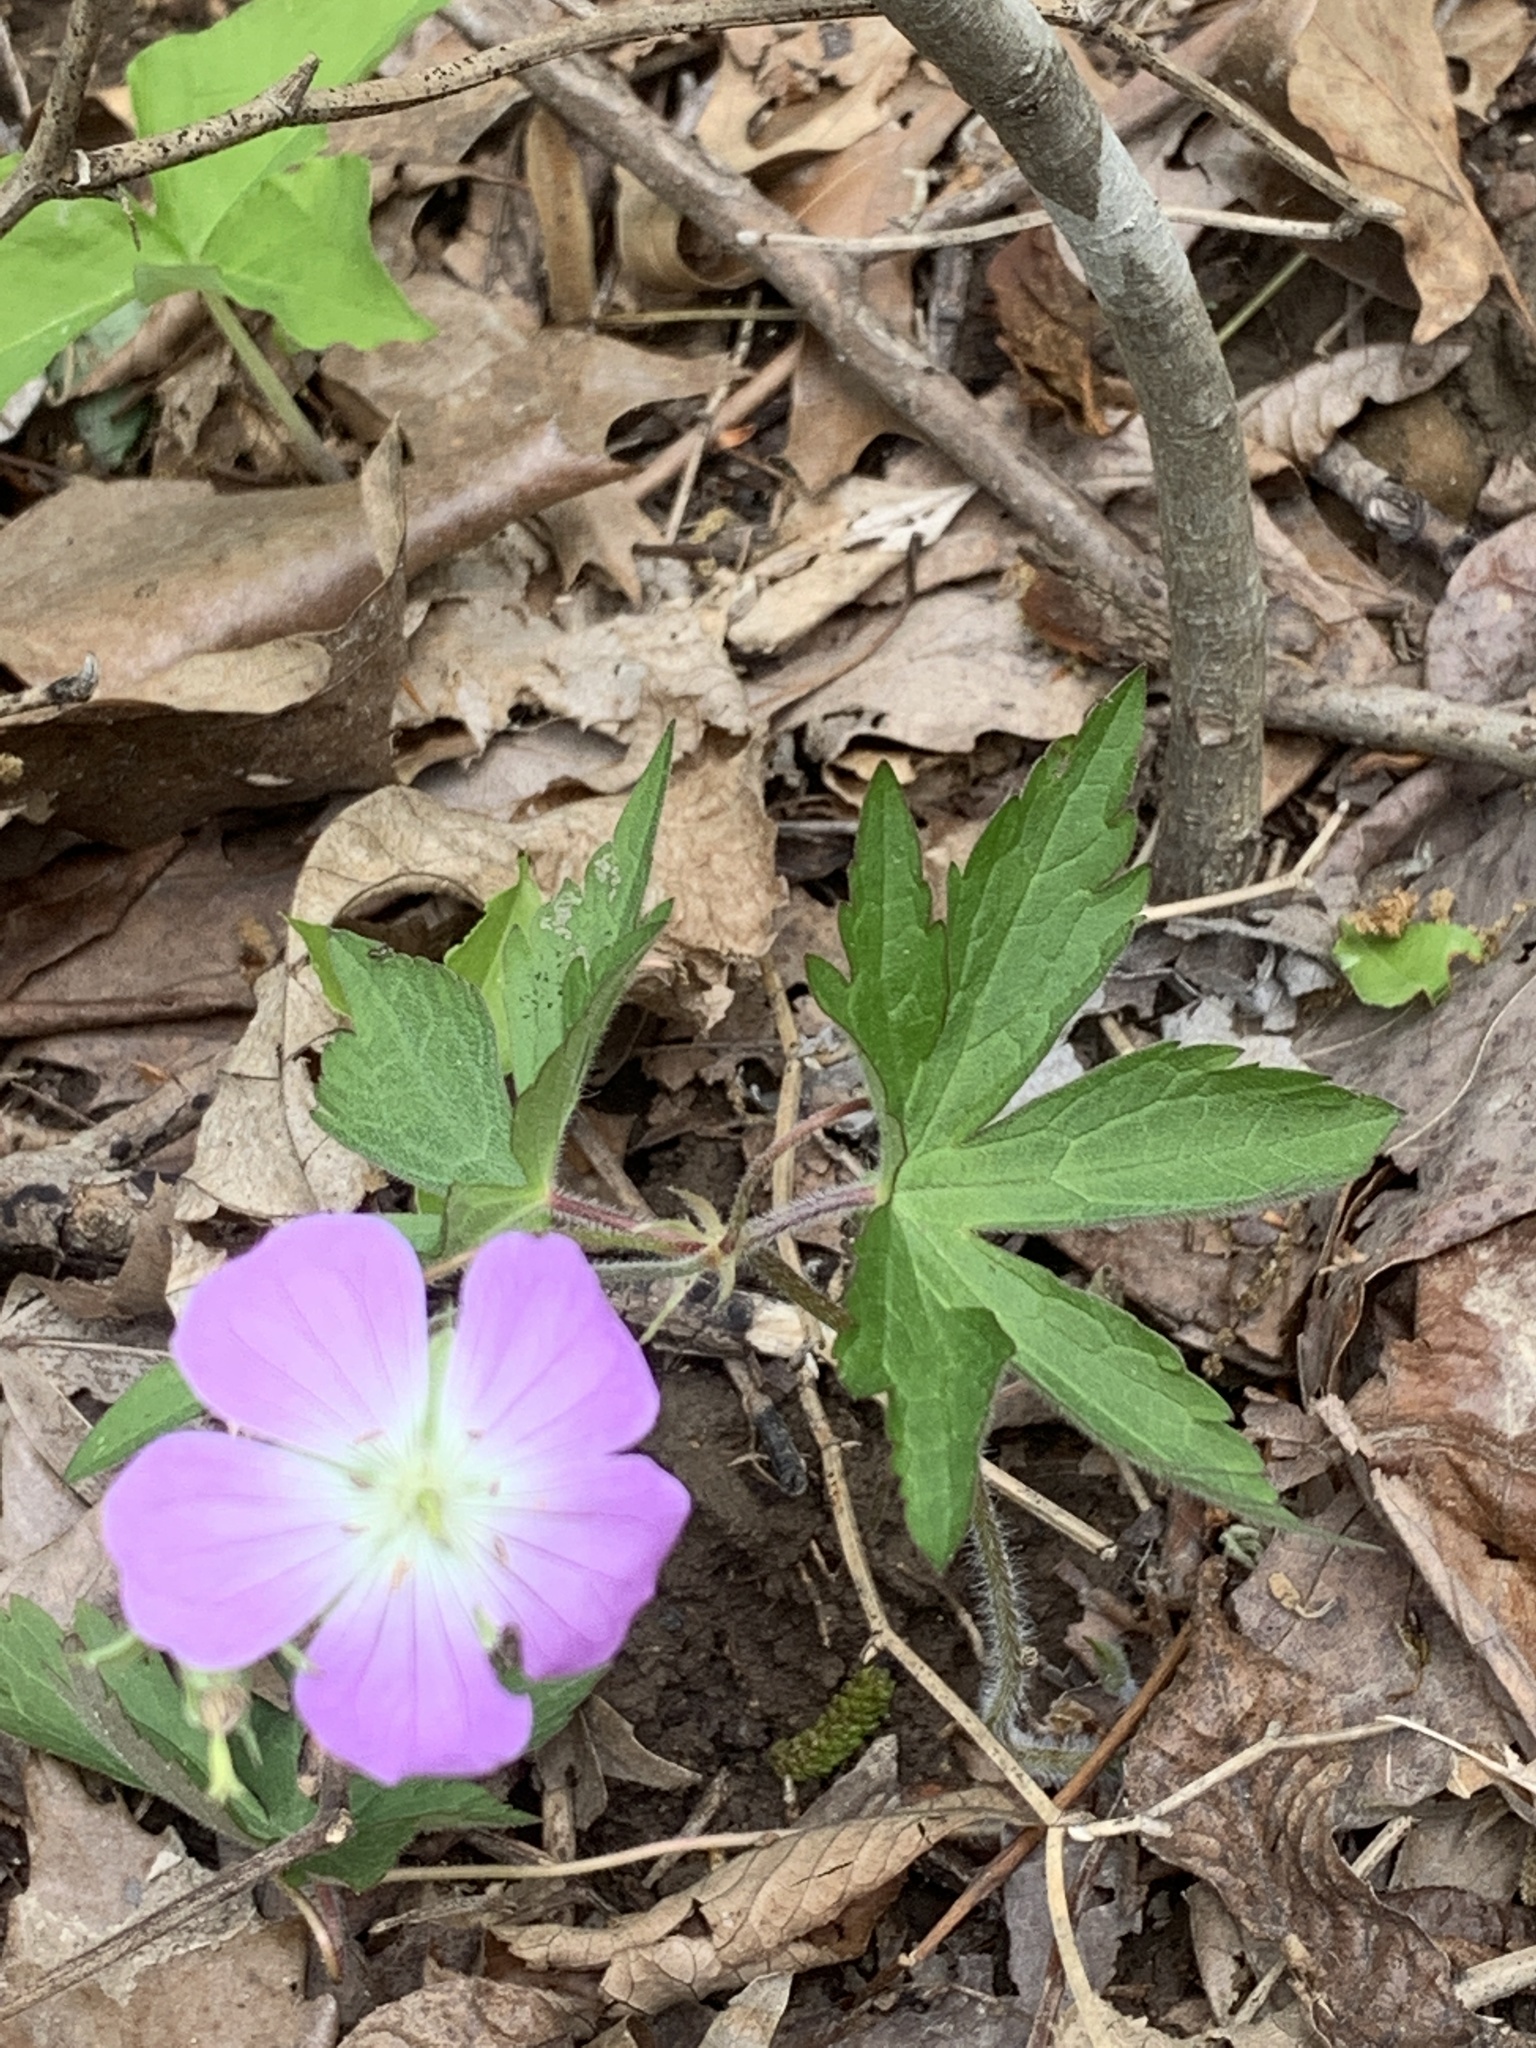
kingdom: Plantae
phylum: Tracheophyta
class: Magnoliopsida
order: Geraniales
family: Geraniaceae
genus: Geranium
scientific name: Geranium maculatum
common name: Spotted geranium
